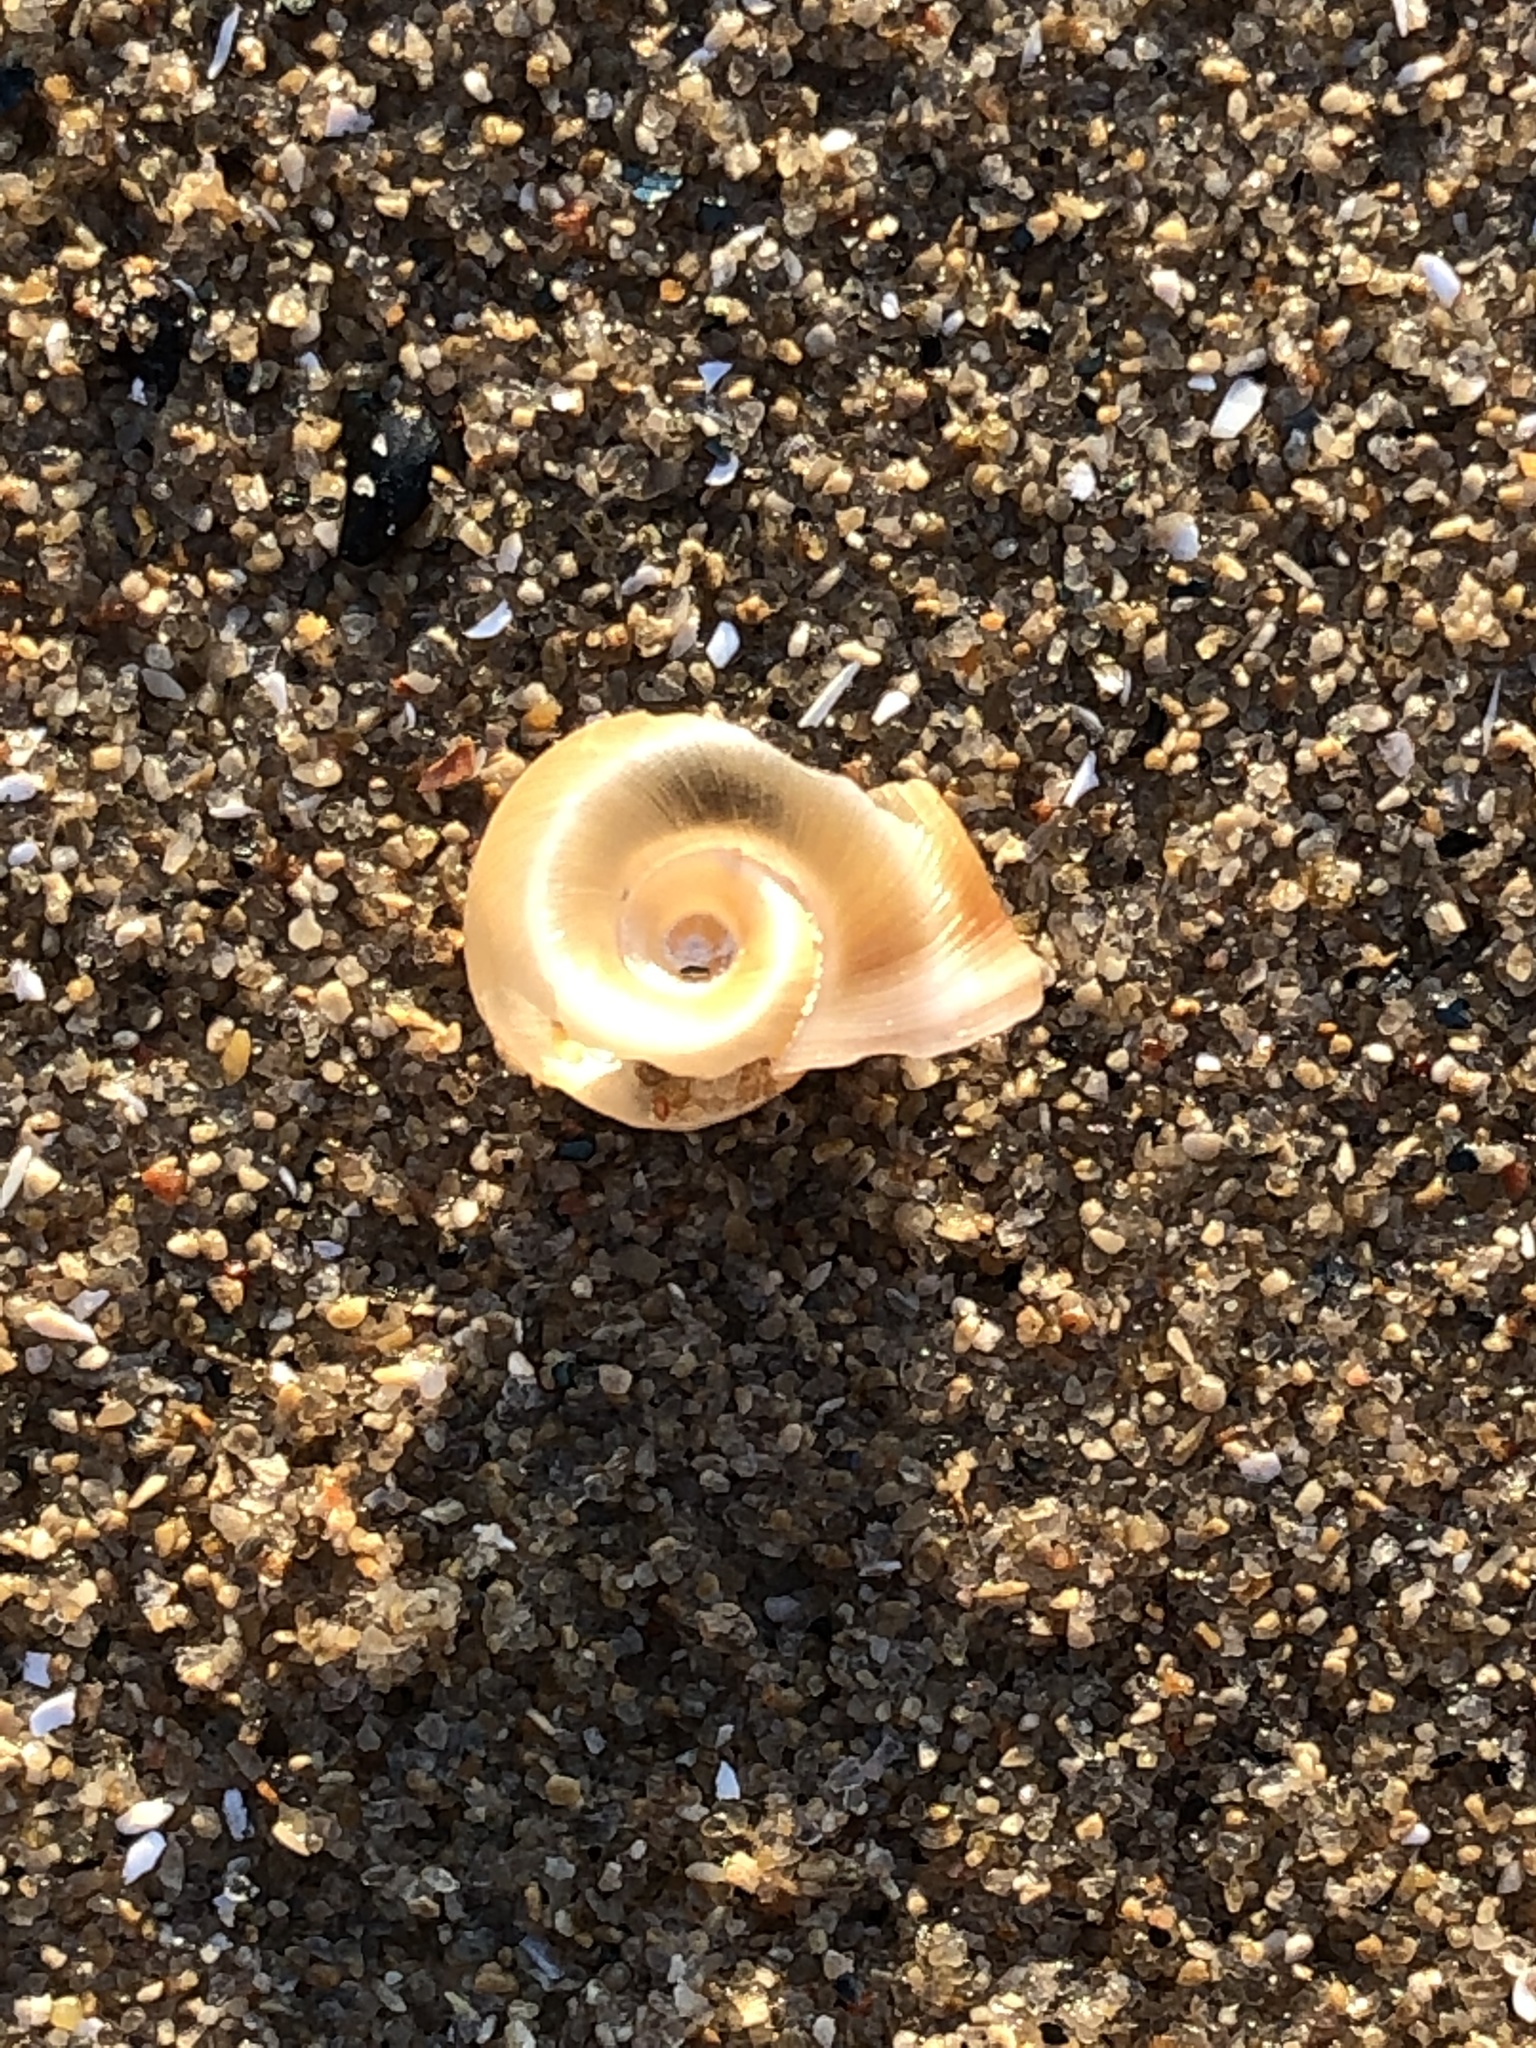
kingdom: Animalia
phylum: Mollusca
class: Gastropoda
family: Planorbidae
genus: Planorbella
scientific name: Planorbella trivolvis
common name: Marsh rams-horn
